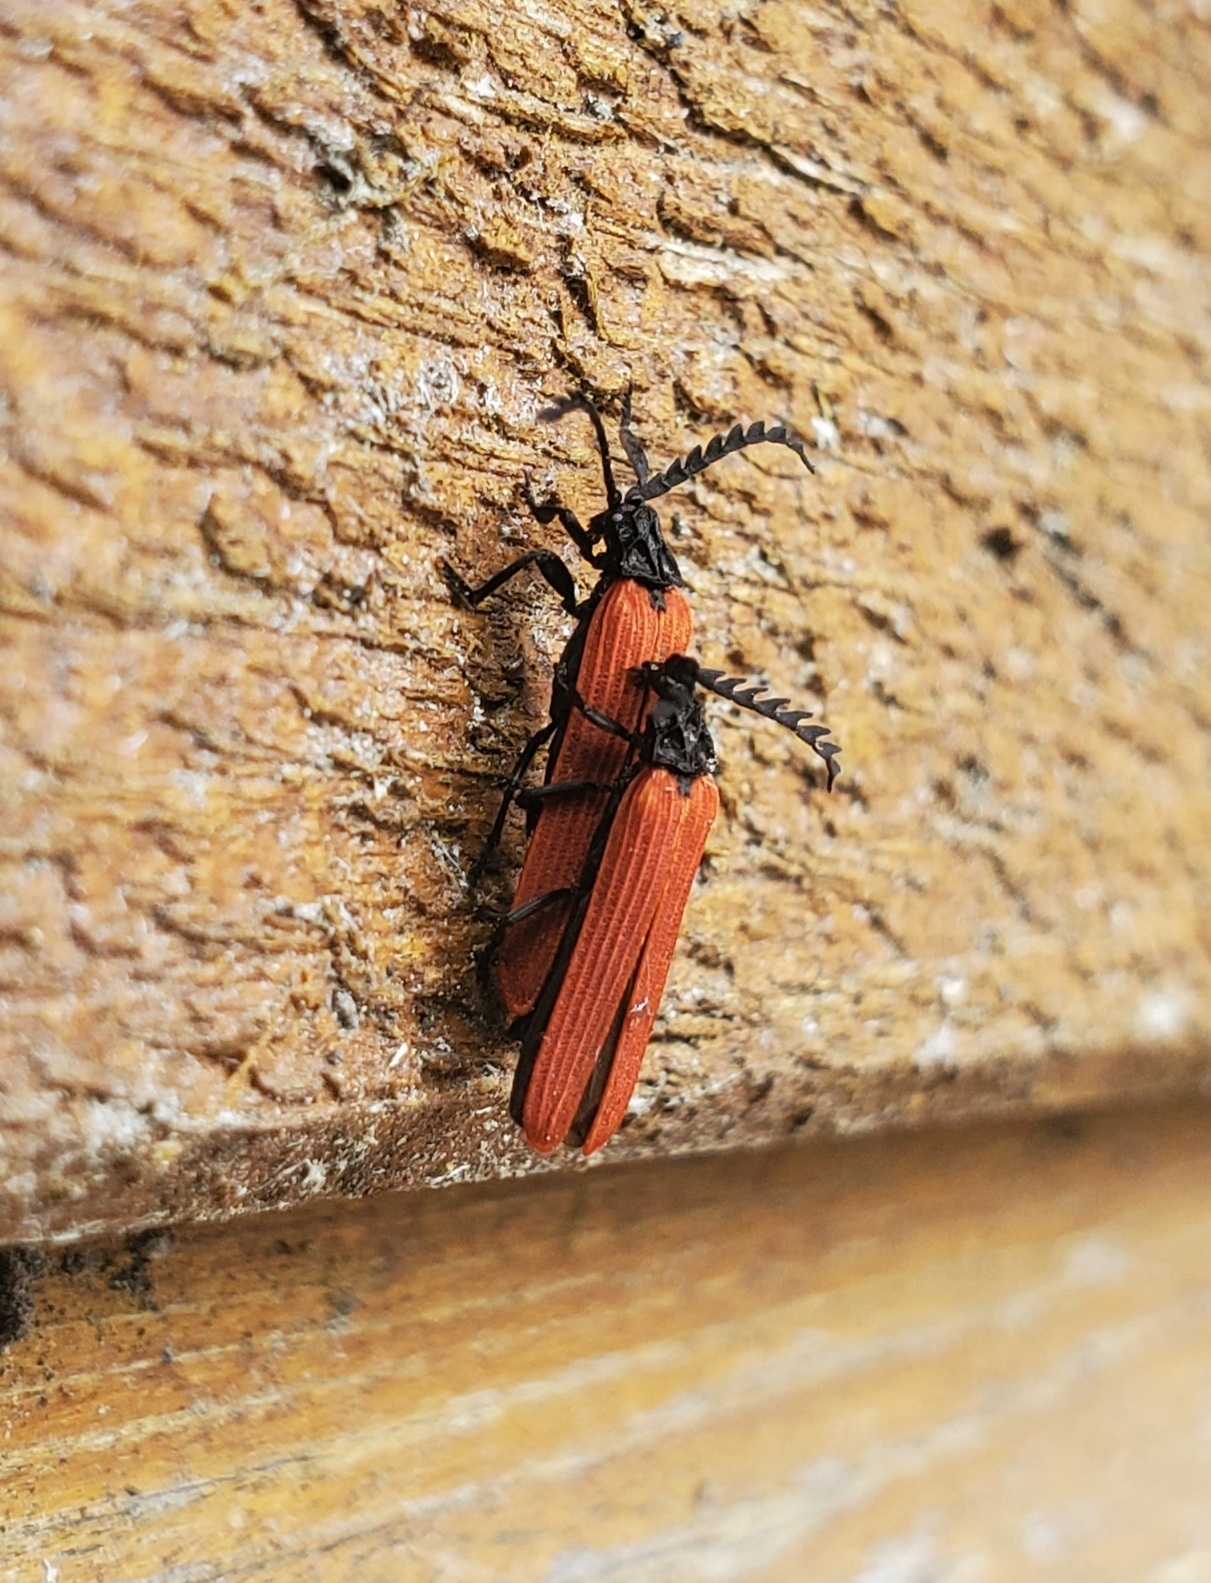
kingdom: Animalia
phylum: Arthropoda
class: Insecta
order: Coleoptera
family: Lycidae
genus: Porrostoma
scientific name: Porrostoma rufipenne
